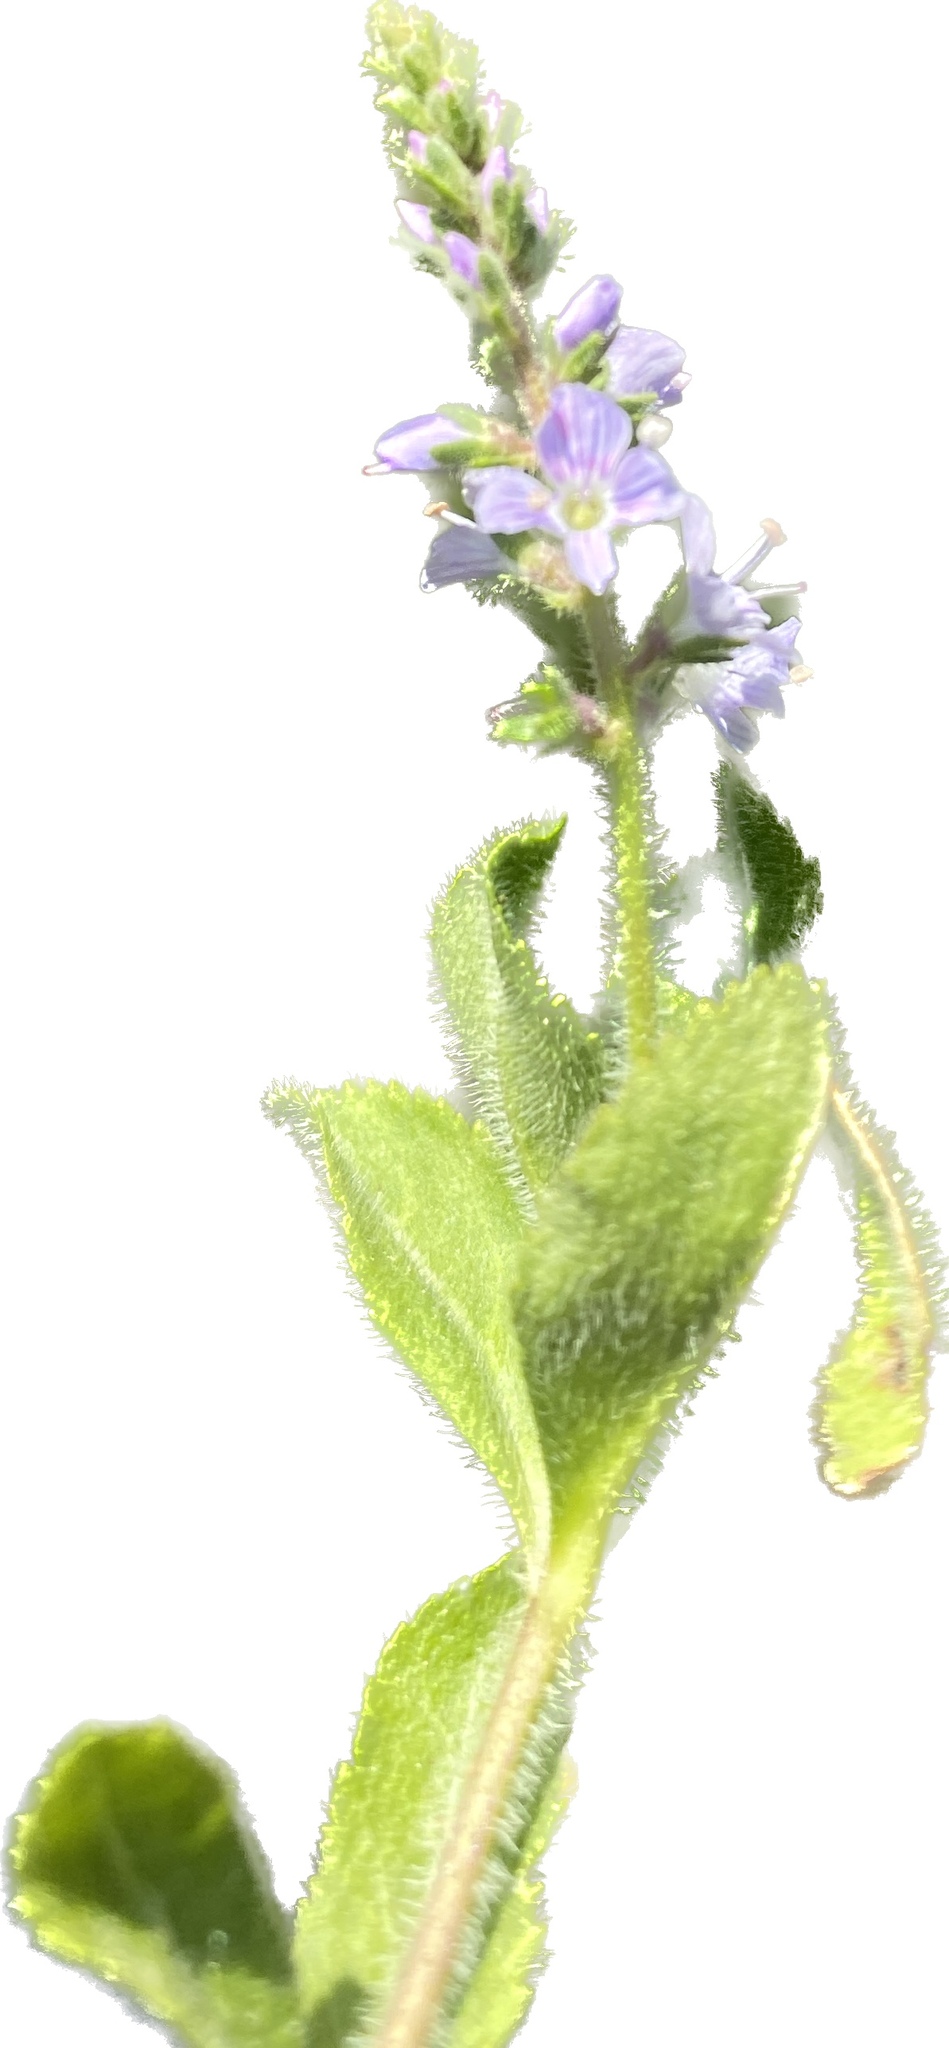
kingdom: Plantae
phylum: Tracheophyta
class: Magnoliopsida
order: Lamiales
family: Plantaginaceae
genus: Veronica
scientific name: Veronica officinalis
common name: Common speedwell
